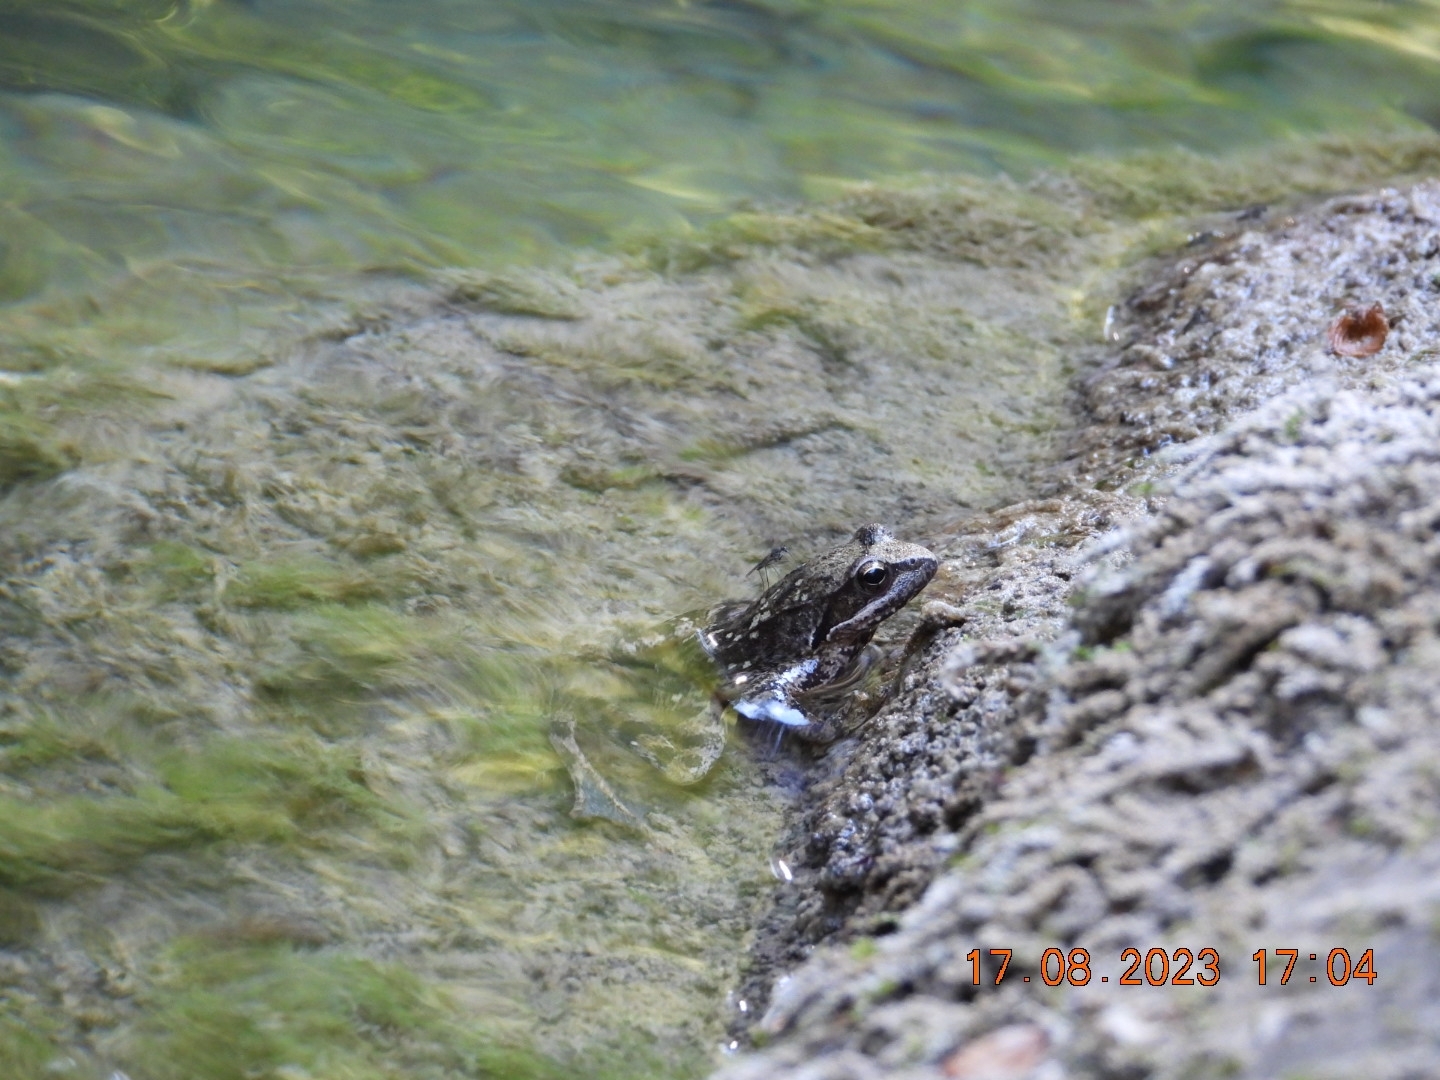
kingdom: Animalia
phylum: Chordata
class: Amphibia
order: Anura
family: Ranidae
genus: Rana
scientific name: Rana italica
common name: Italian stream frog
